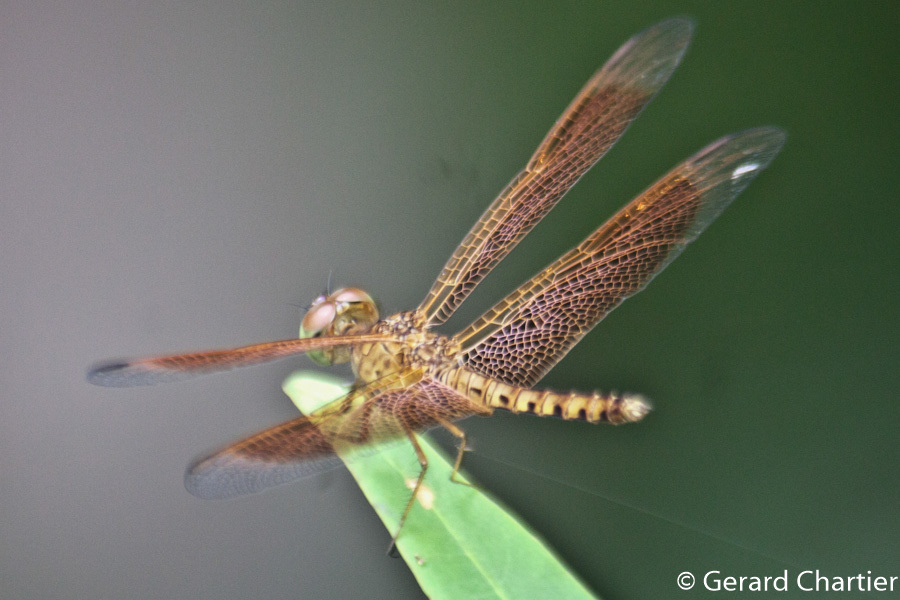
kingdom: Animalia
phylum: Arthropoda
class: Insecta
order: Odonata
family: Libellulidae
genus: Neurothemis
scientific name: Neurothemis fluctuans
